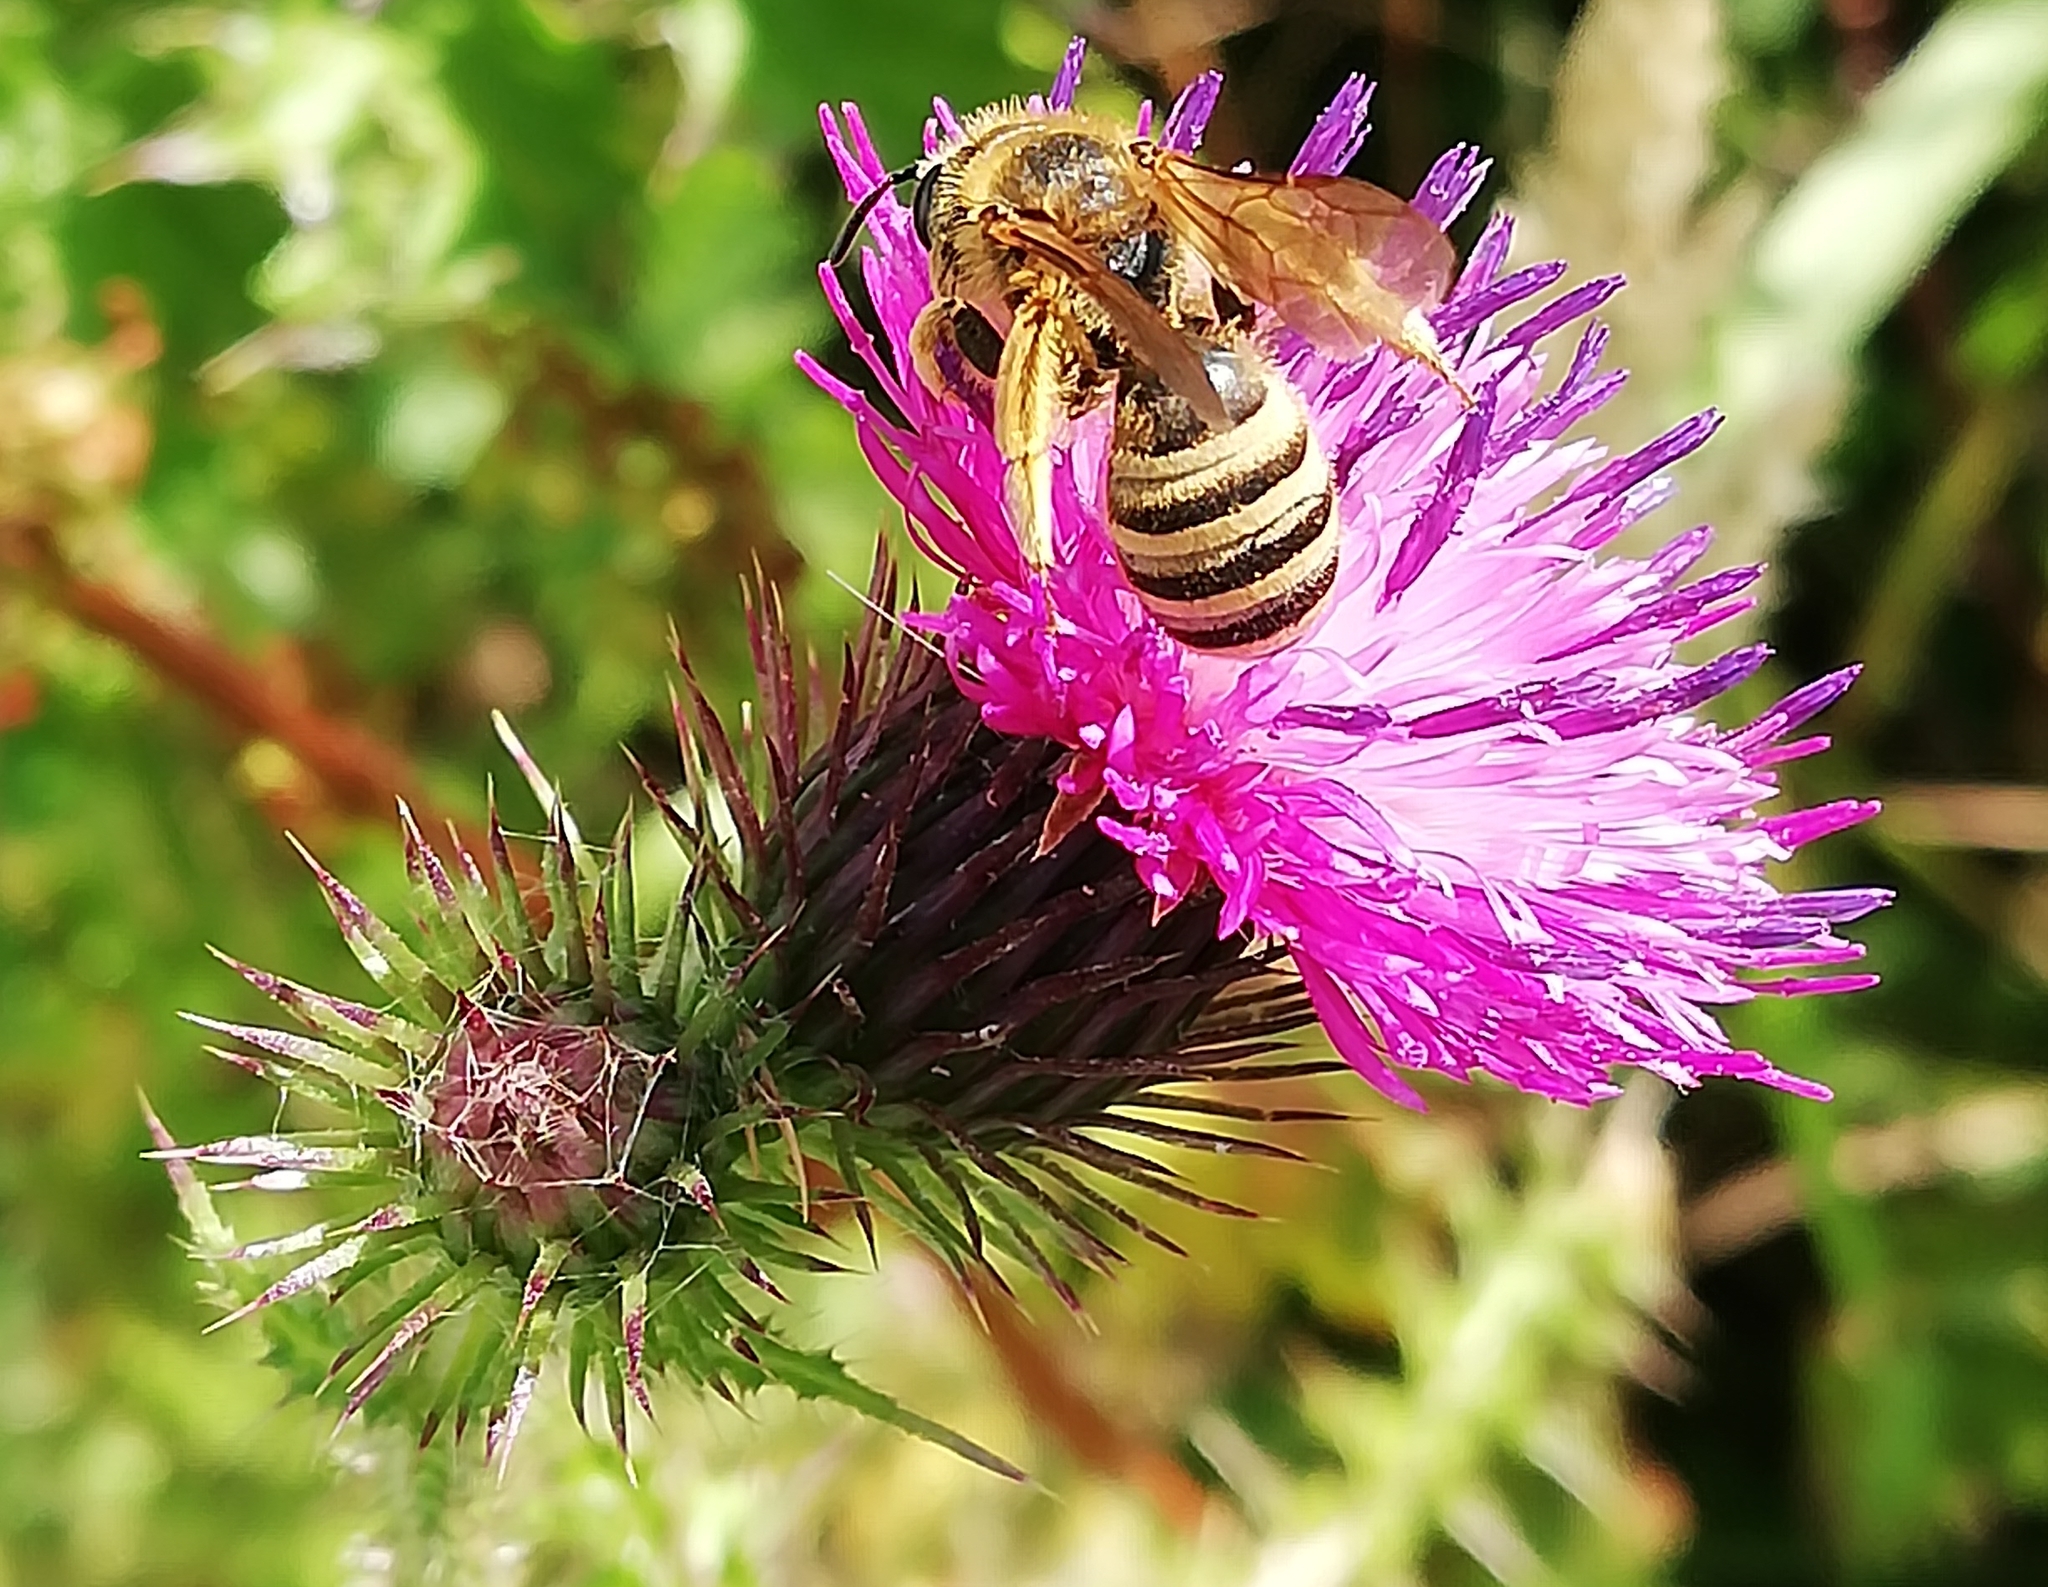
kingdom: Animalia
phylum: Arthropoda
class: Insecta
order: Hymenoptera
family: Halictidae
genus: Halictus
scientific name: Halictus scabiosae
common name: Great banded furrow bee
